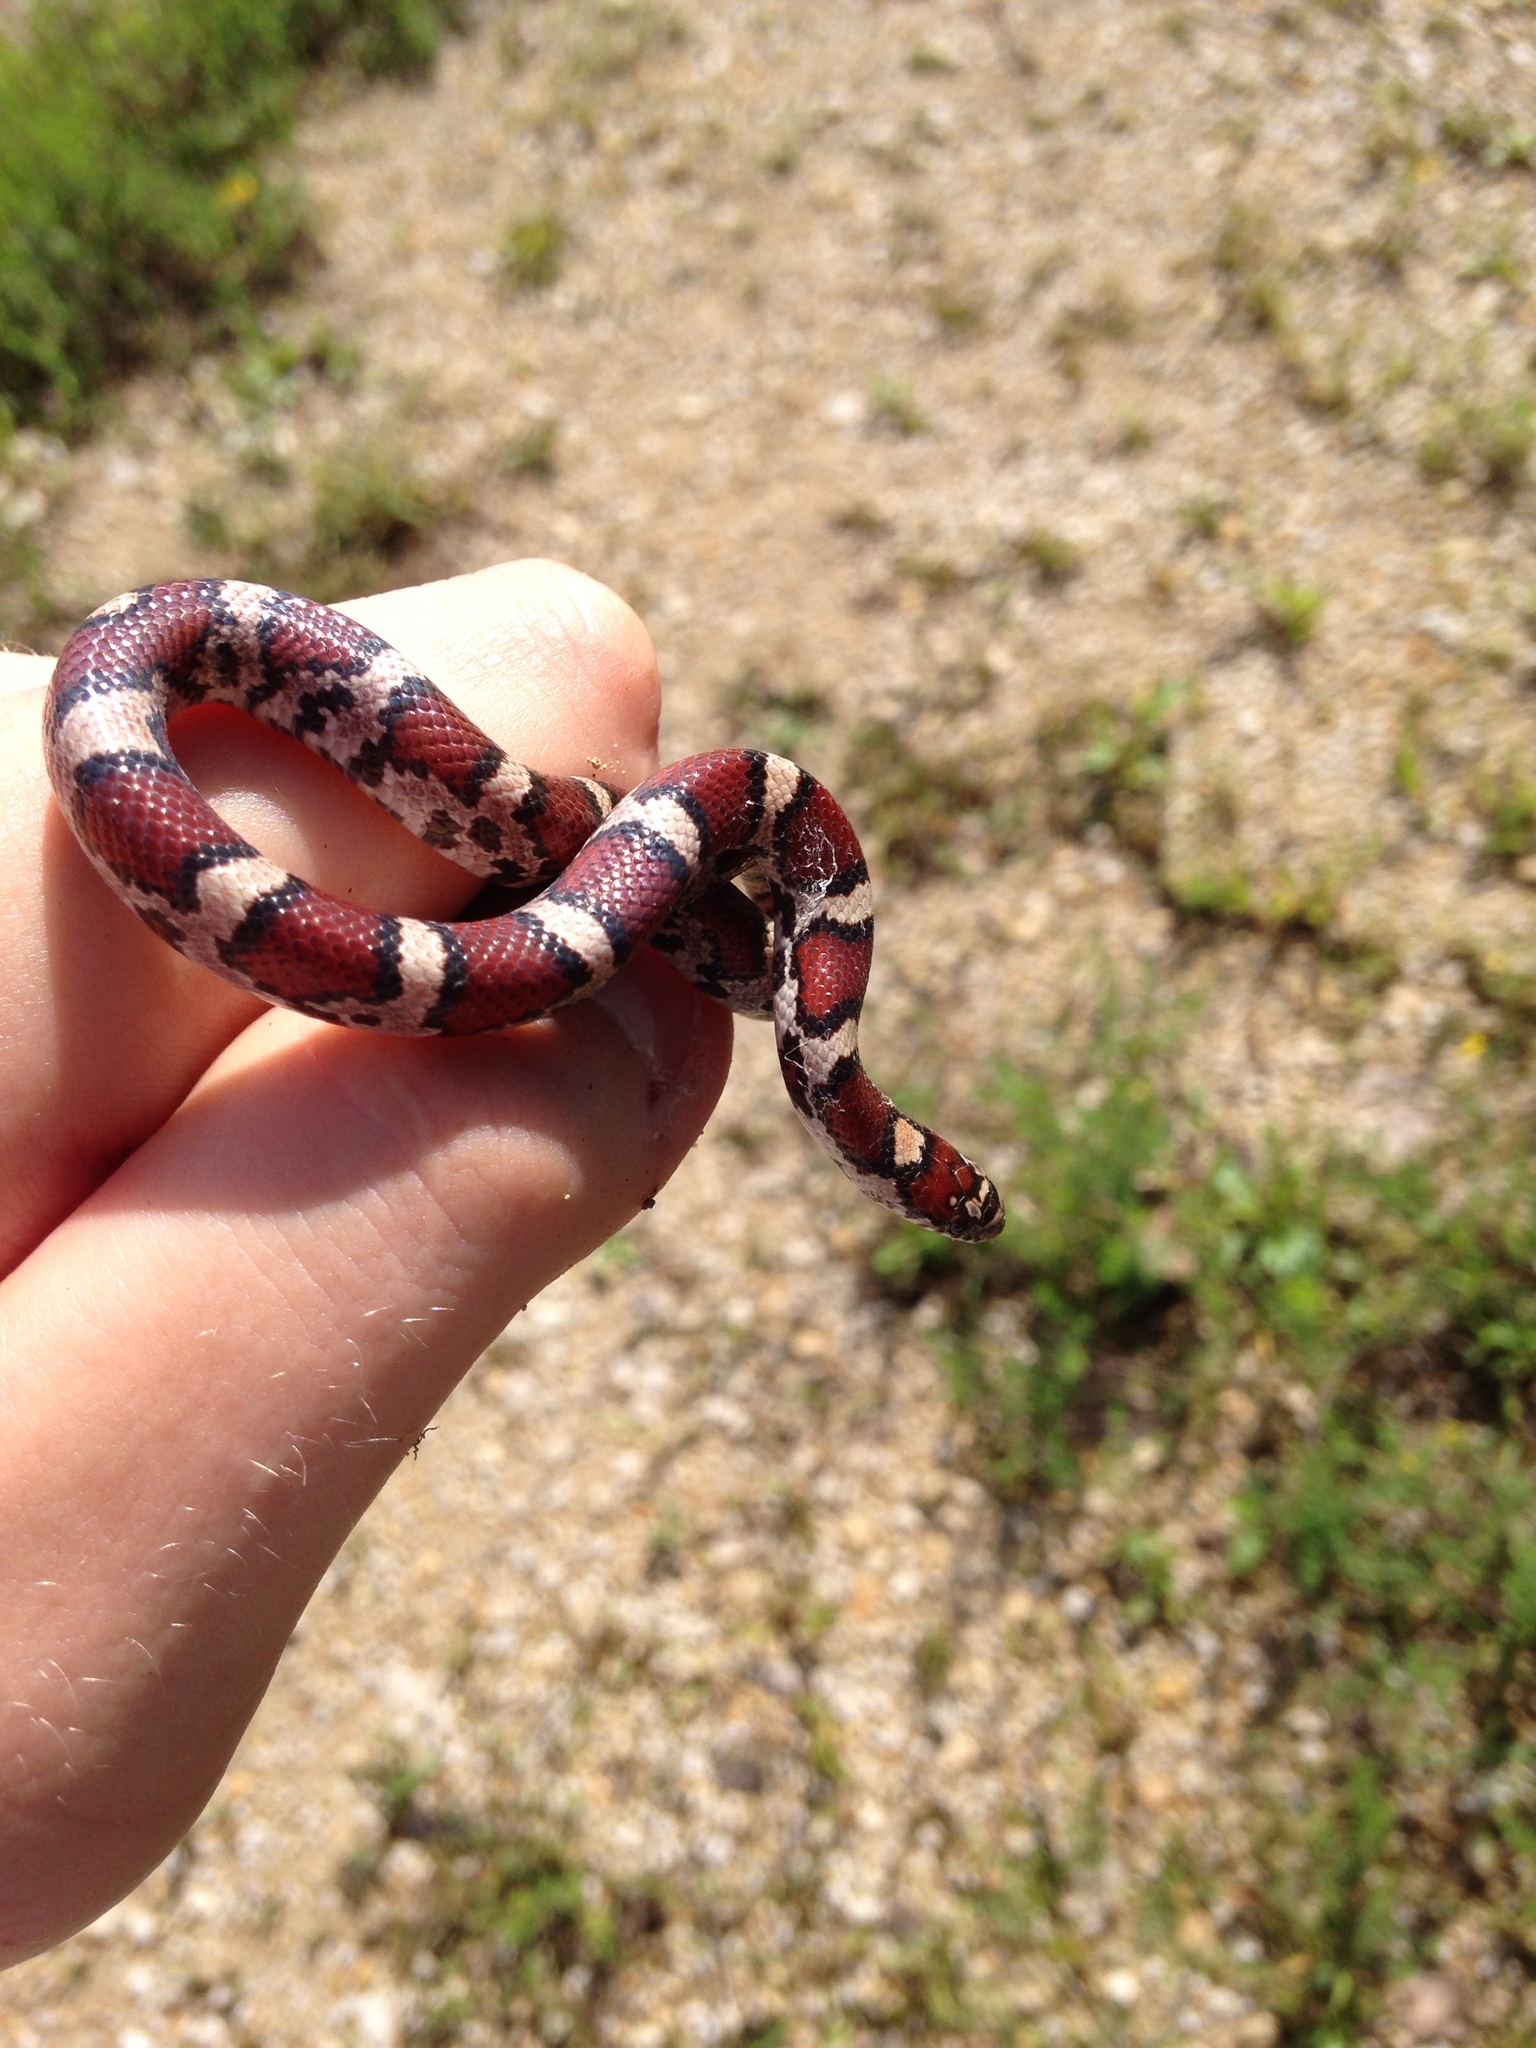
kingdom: Animalia
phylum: Chordata
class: Squamata
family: Colubridae
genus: Lampropeltis
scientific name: Lampropeltis triangulum
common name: Eastern milksnake
